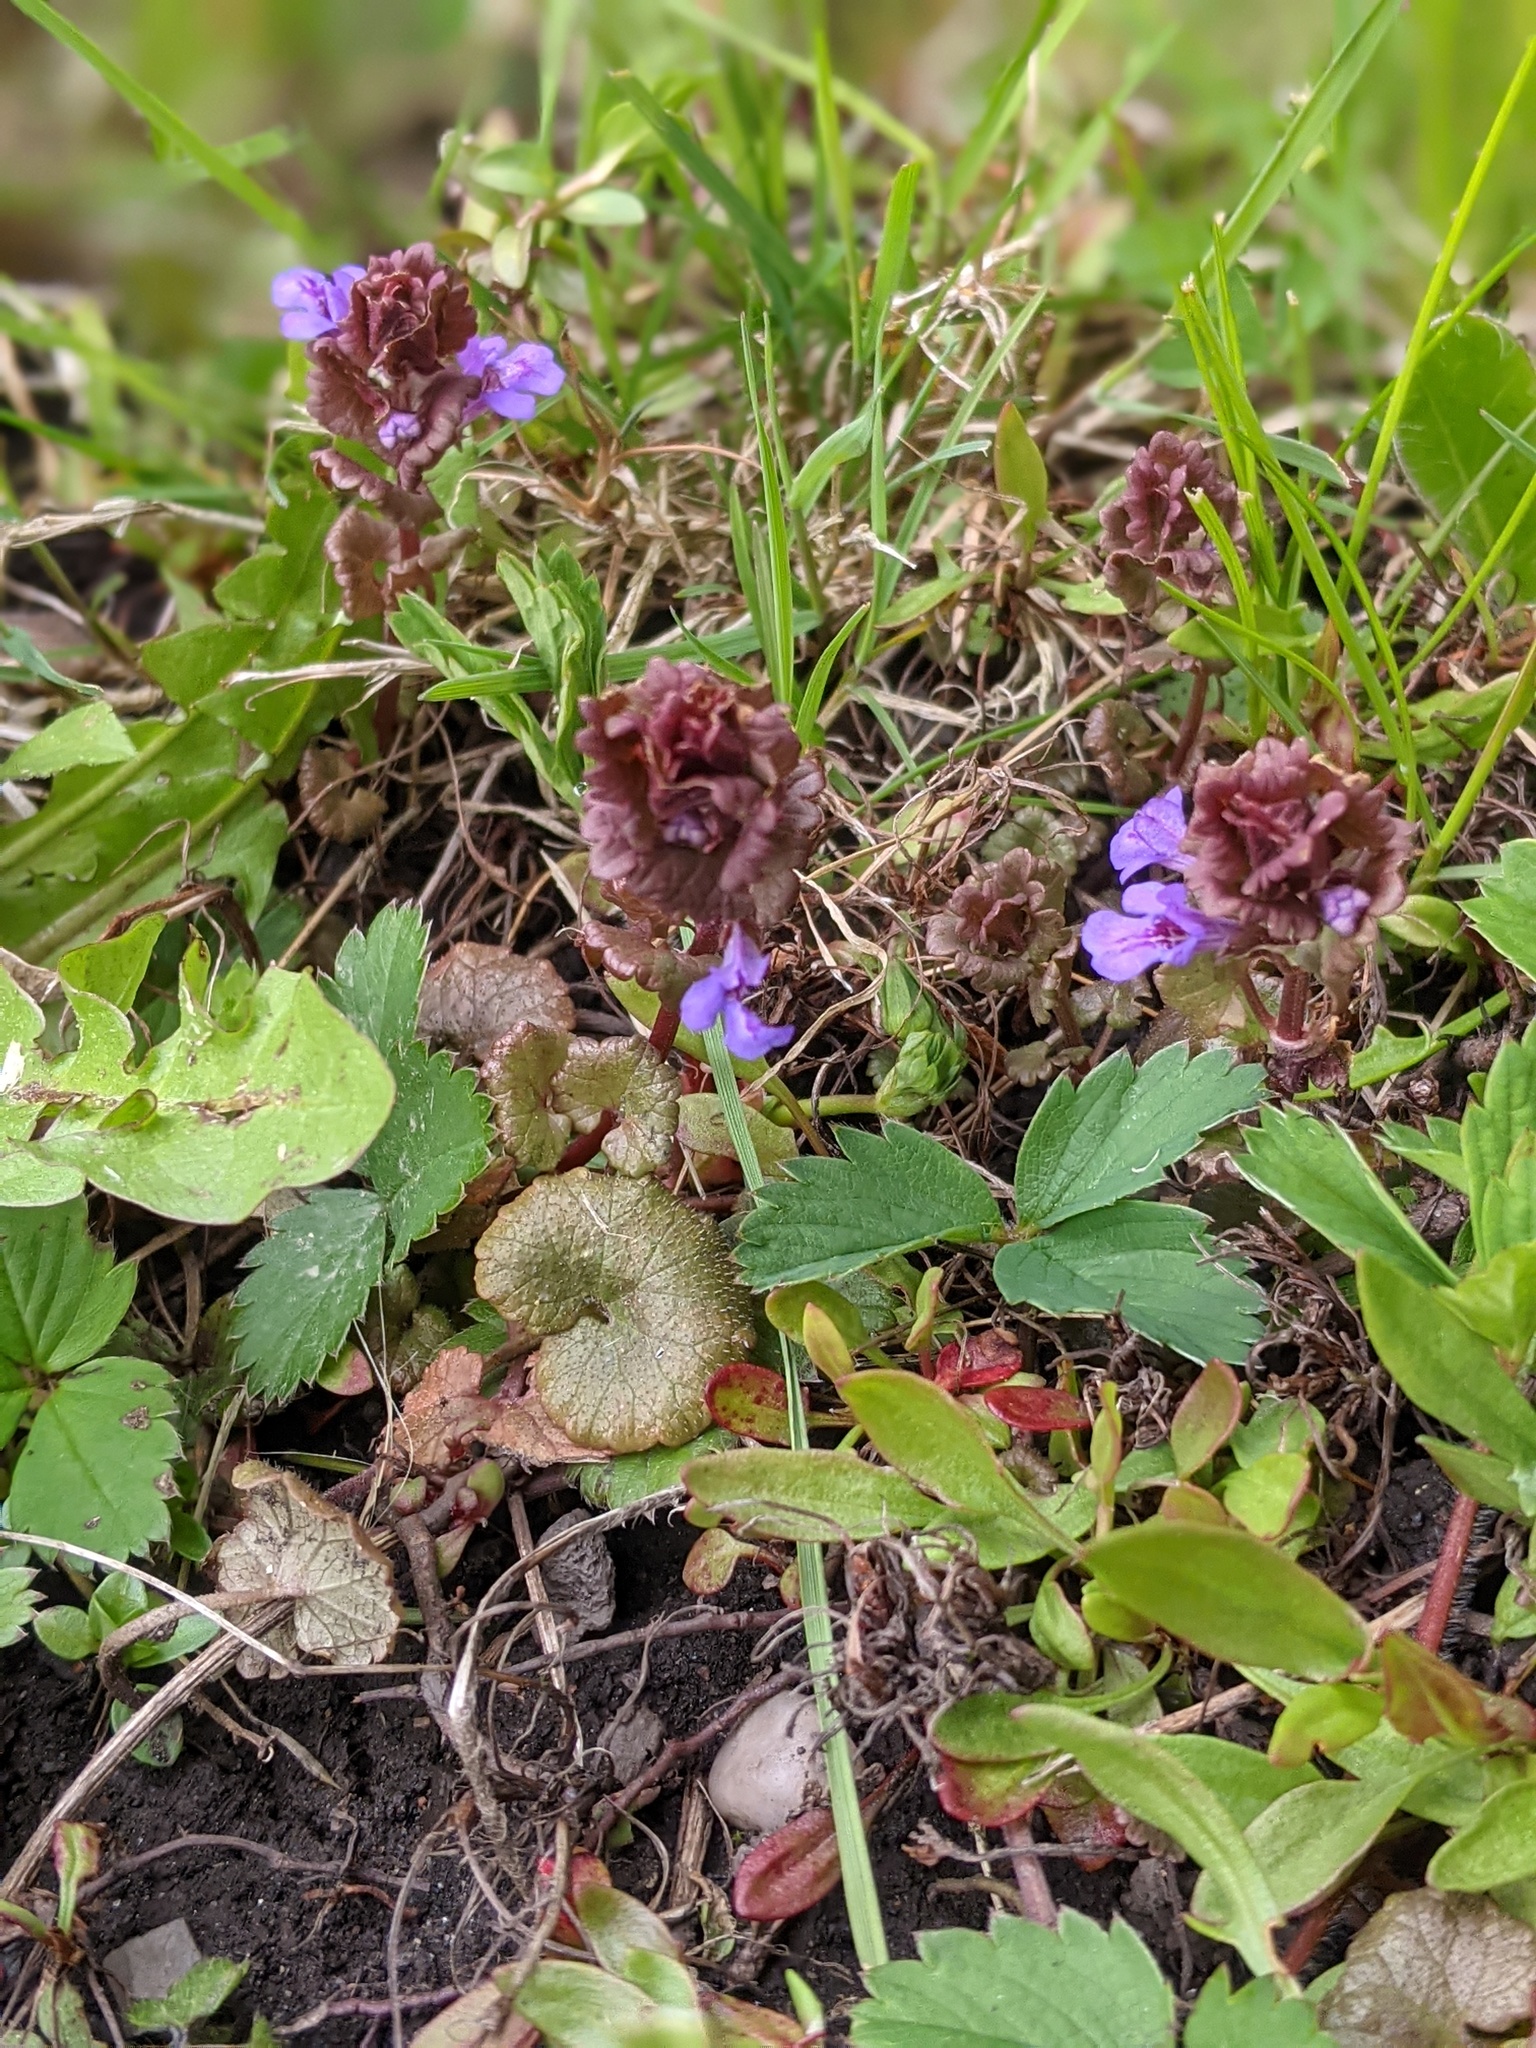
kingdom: Plantae
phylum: Tracheophyta
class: Magnoliopsida
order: Lamiales
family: Lamiaceae
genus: Glechoma
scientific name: Glechoma hederacea
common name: Ground ivy
